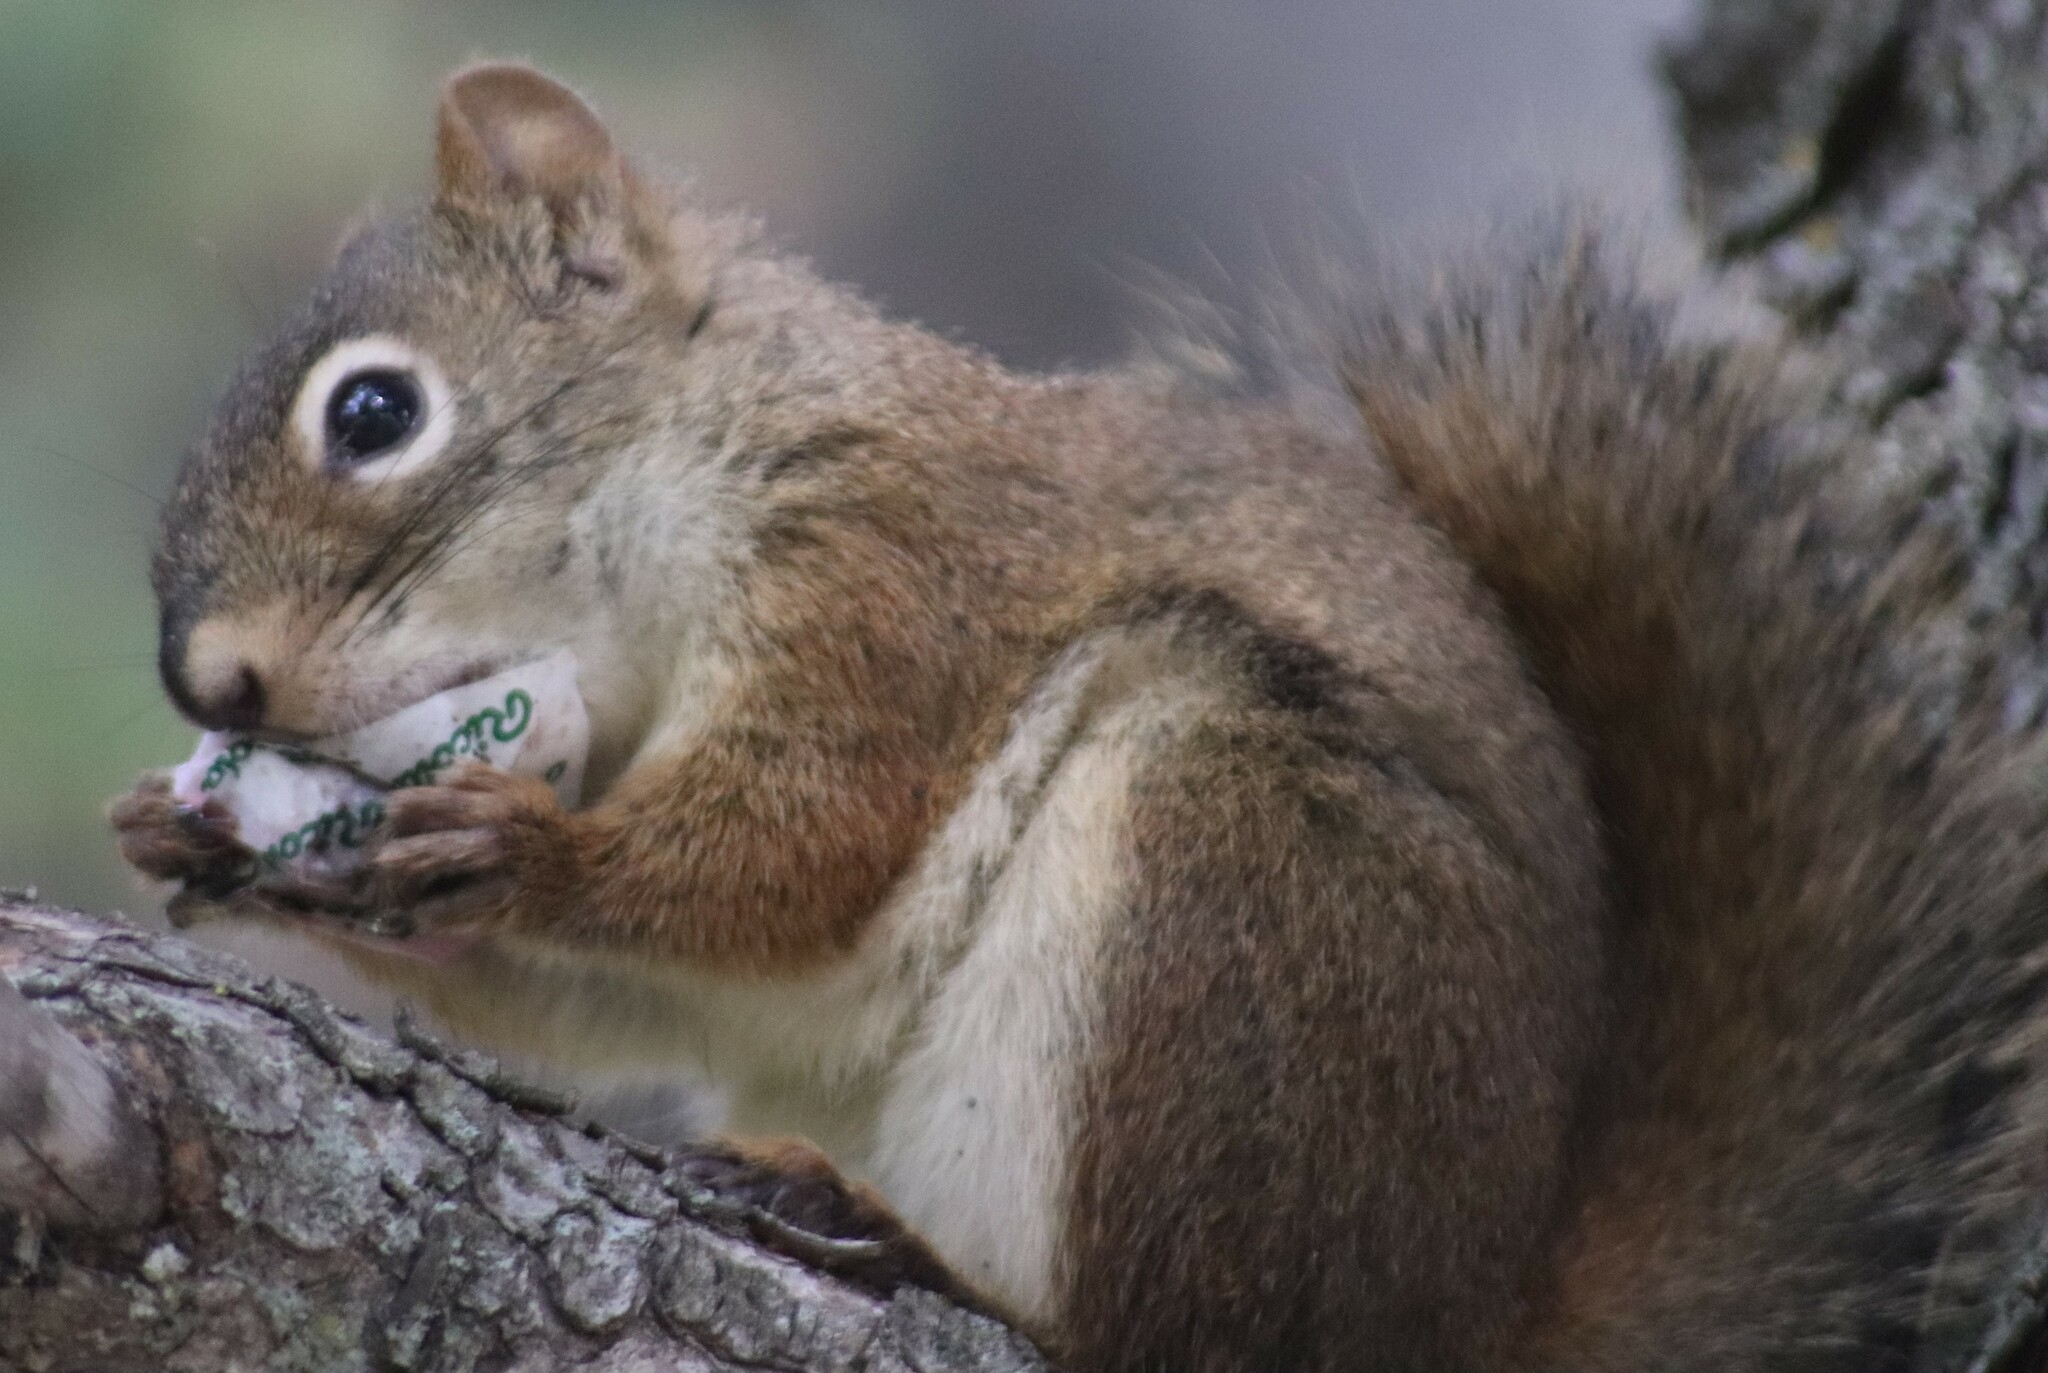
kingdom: Animalia
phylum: Chordata
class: Mammalia
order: Rodentia
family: Sciuridae
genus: Tamiasciurus
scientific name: Tamiasciurus hudsonicus
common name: Red squirrel
